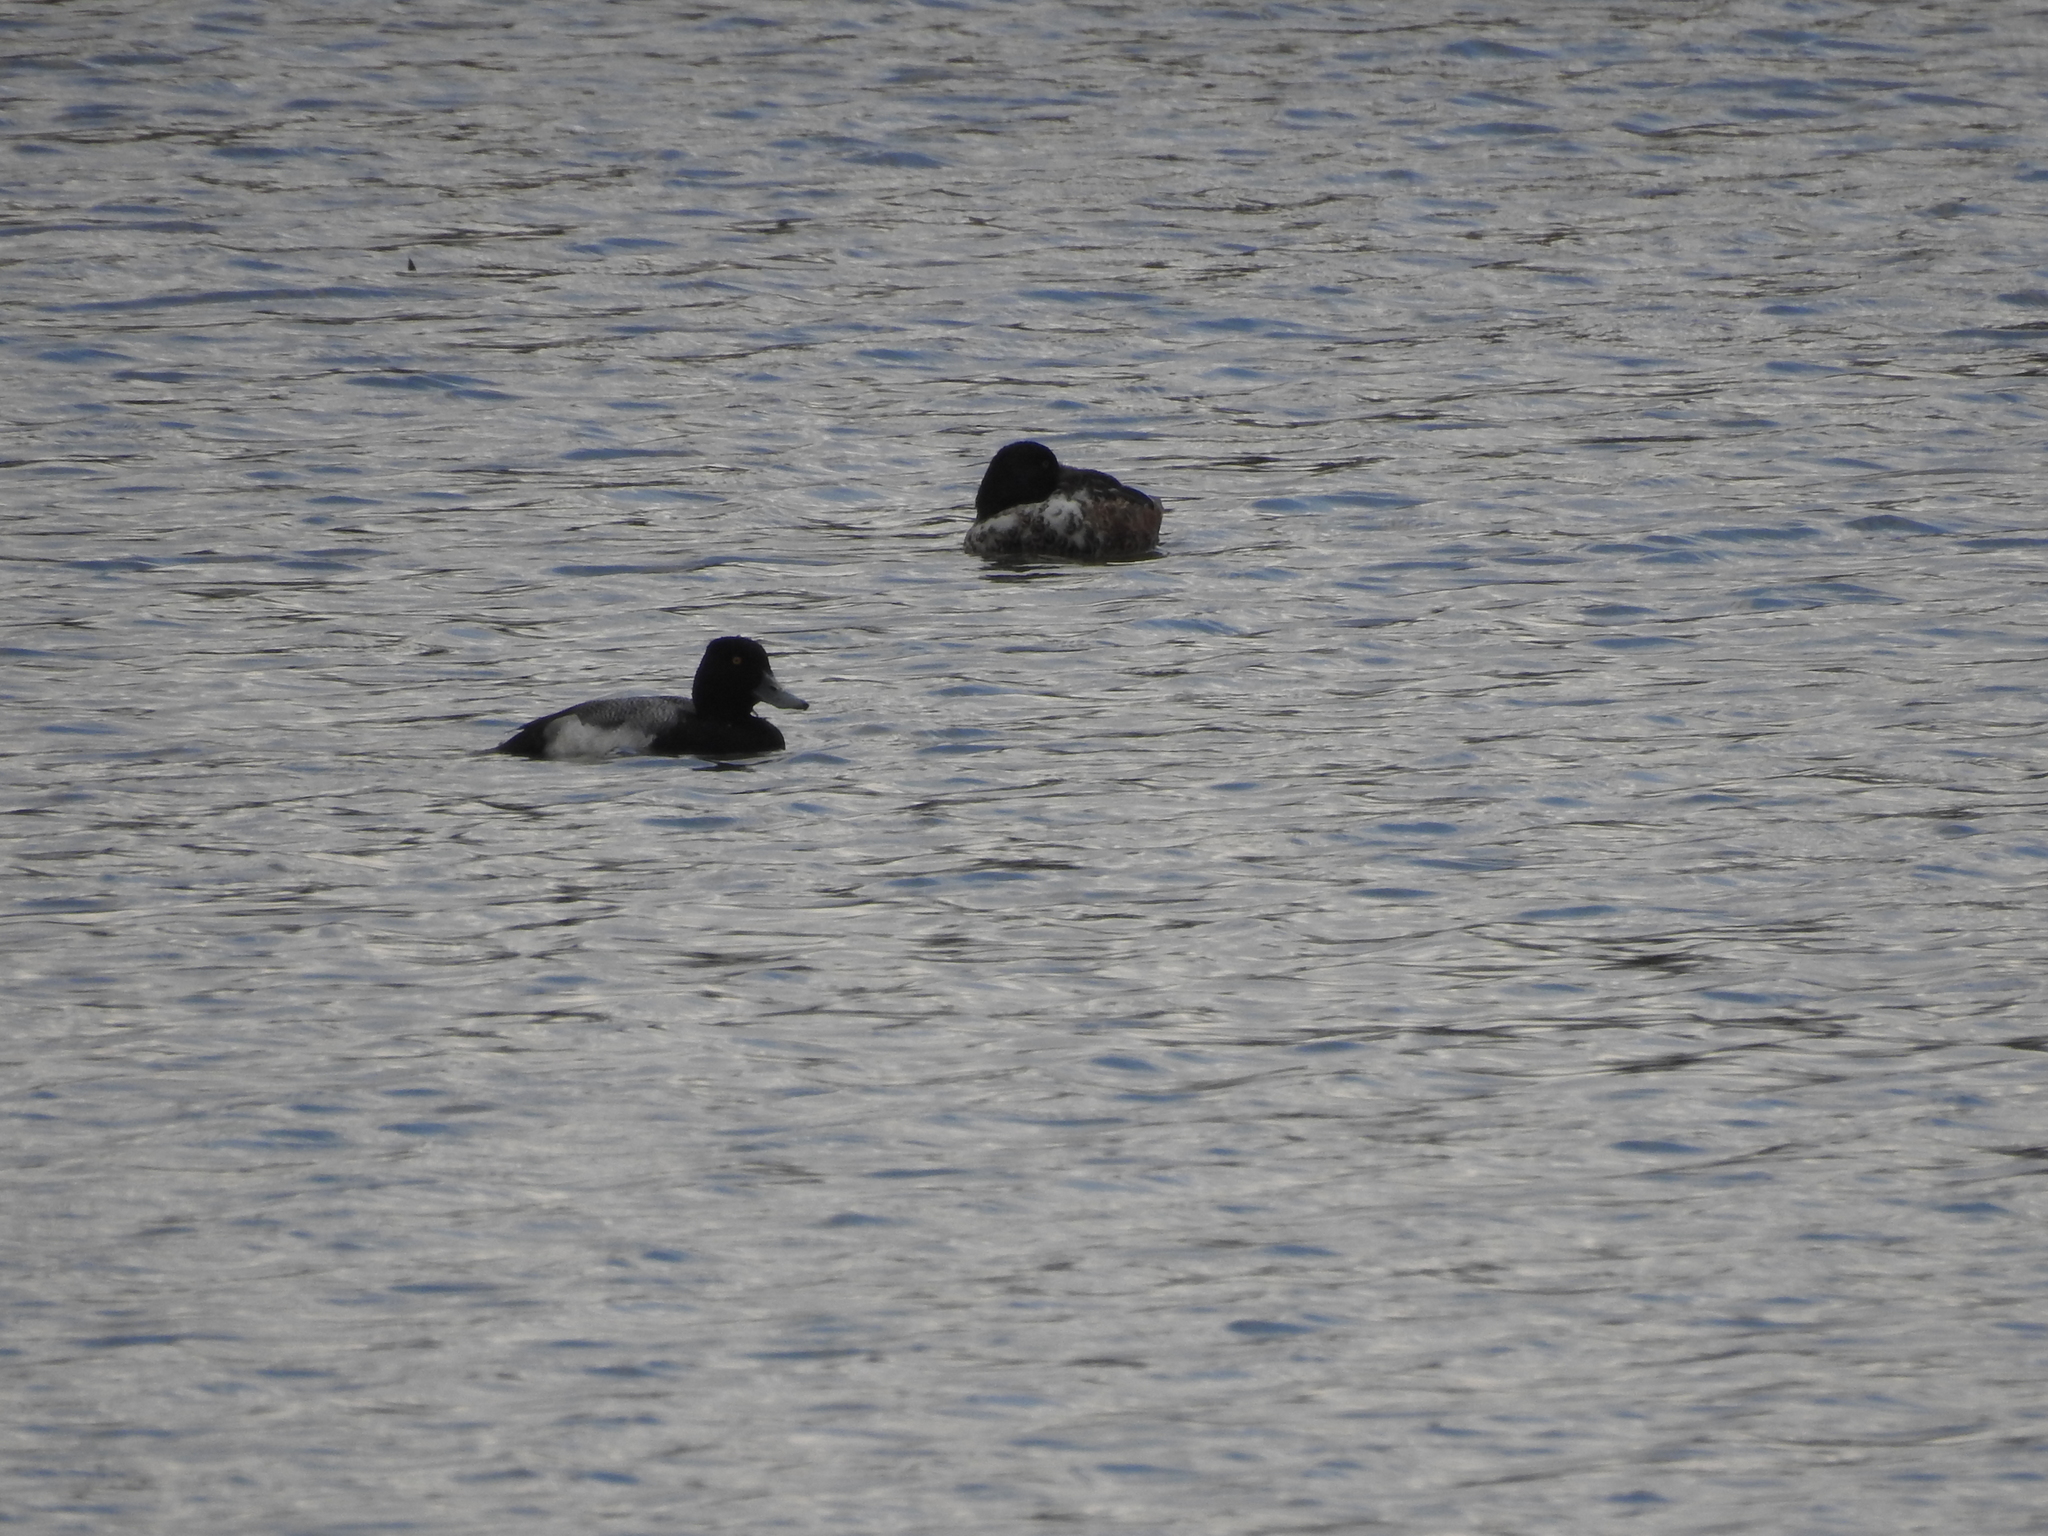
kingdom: Animalia
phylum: Chordata
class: Aves
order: Anseriformes
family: Anatidae
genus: Aythya
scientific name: Aythya affinis
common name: Lesser scaup
